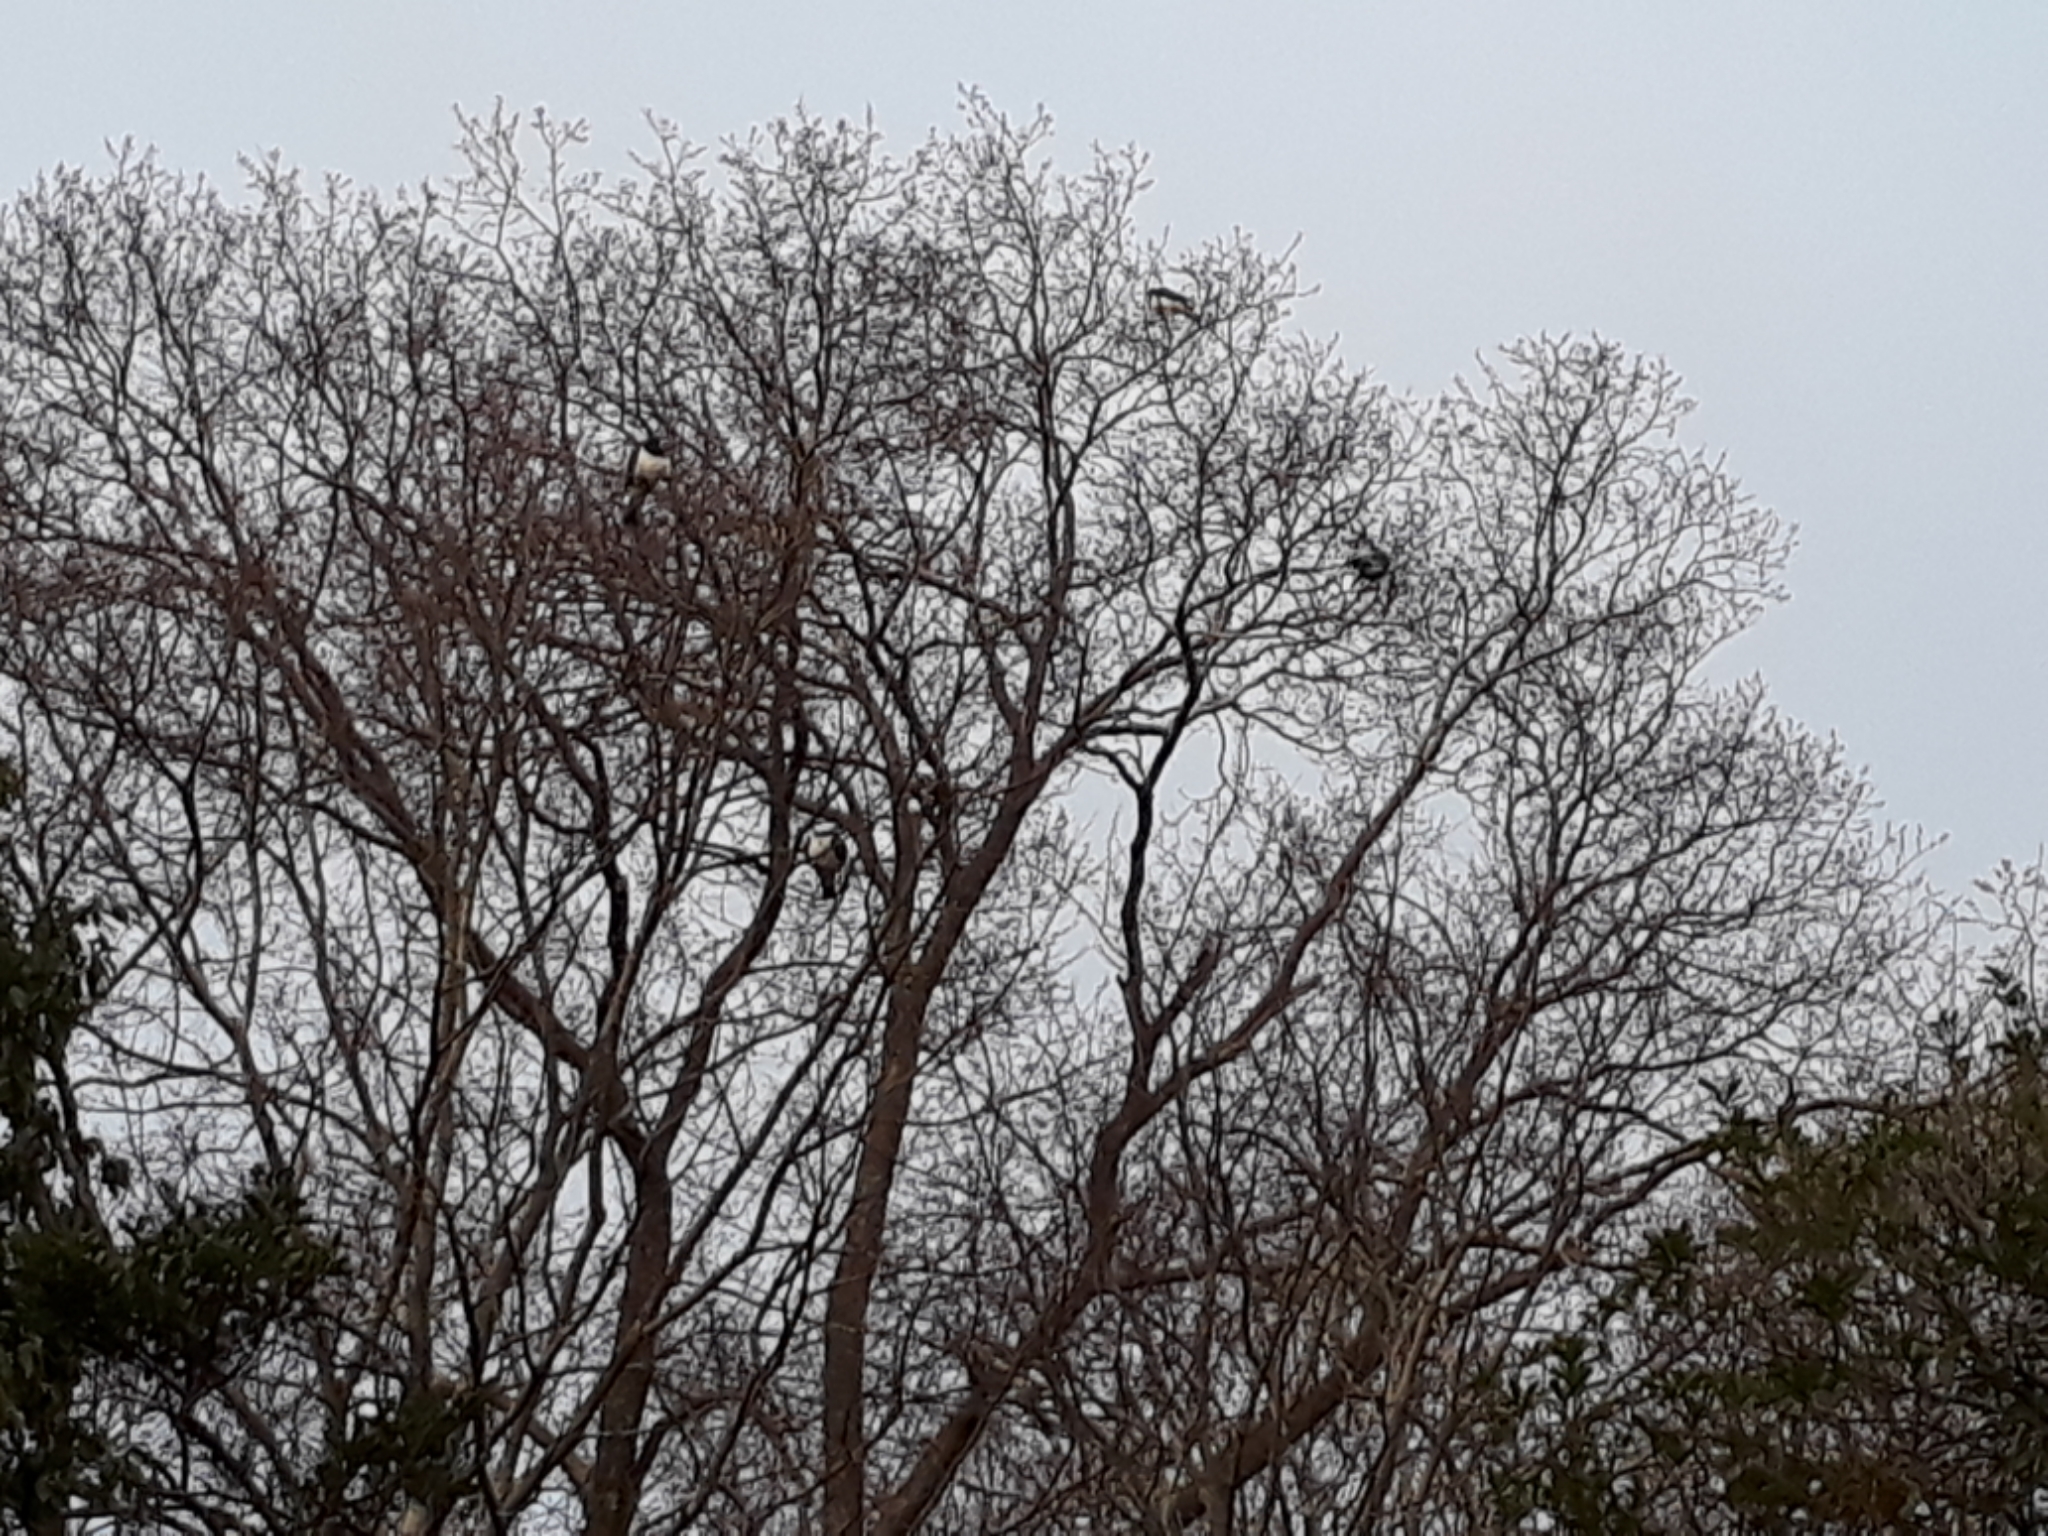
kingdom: Animalia
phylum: Chordata
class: Aves
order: Columbiformes
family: Columbidae
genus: Hemiphaga
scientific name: Hemiphaga novaeseelandiae
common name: New zealand pigeon
